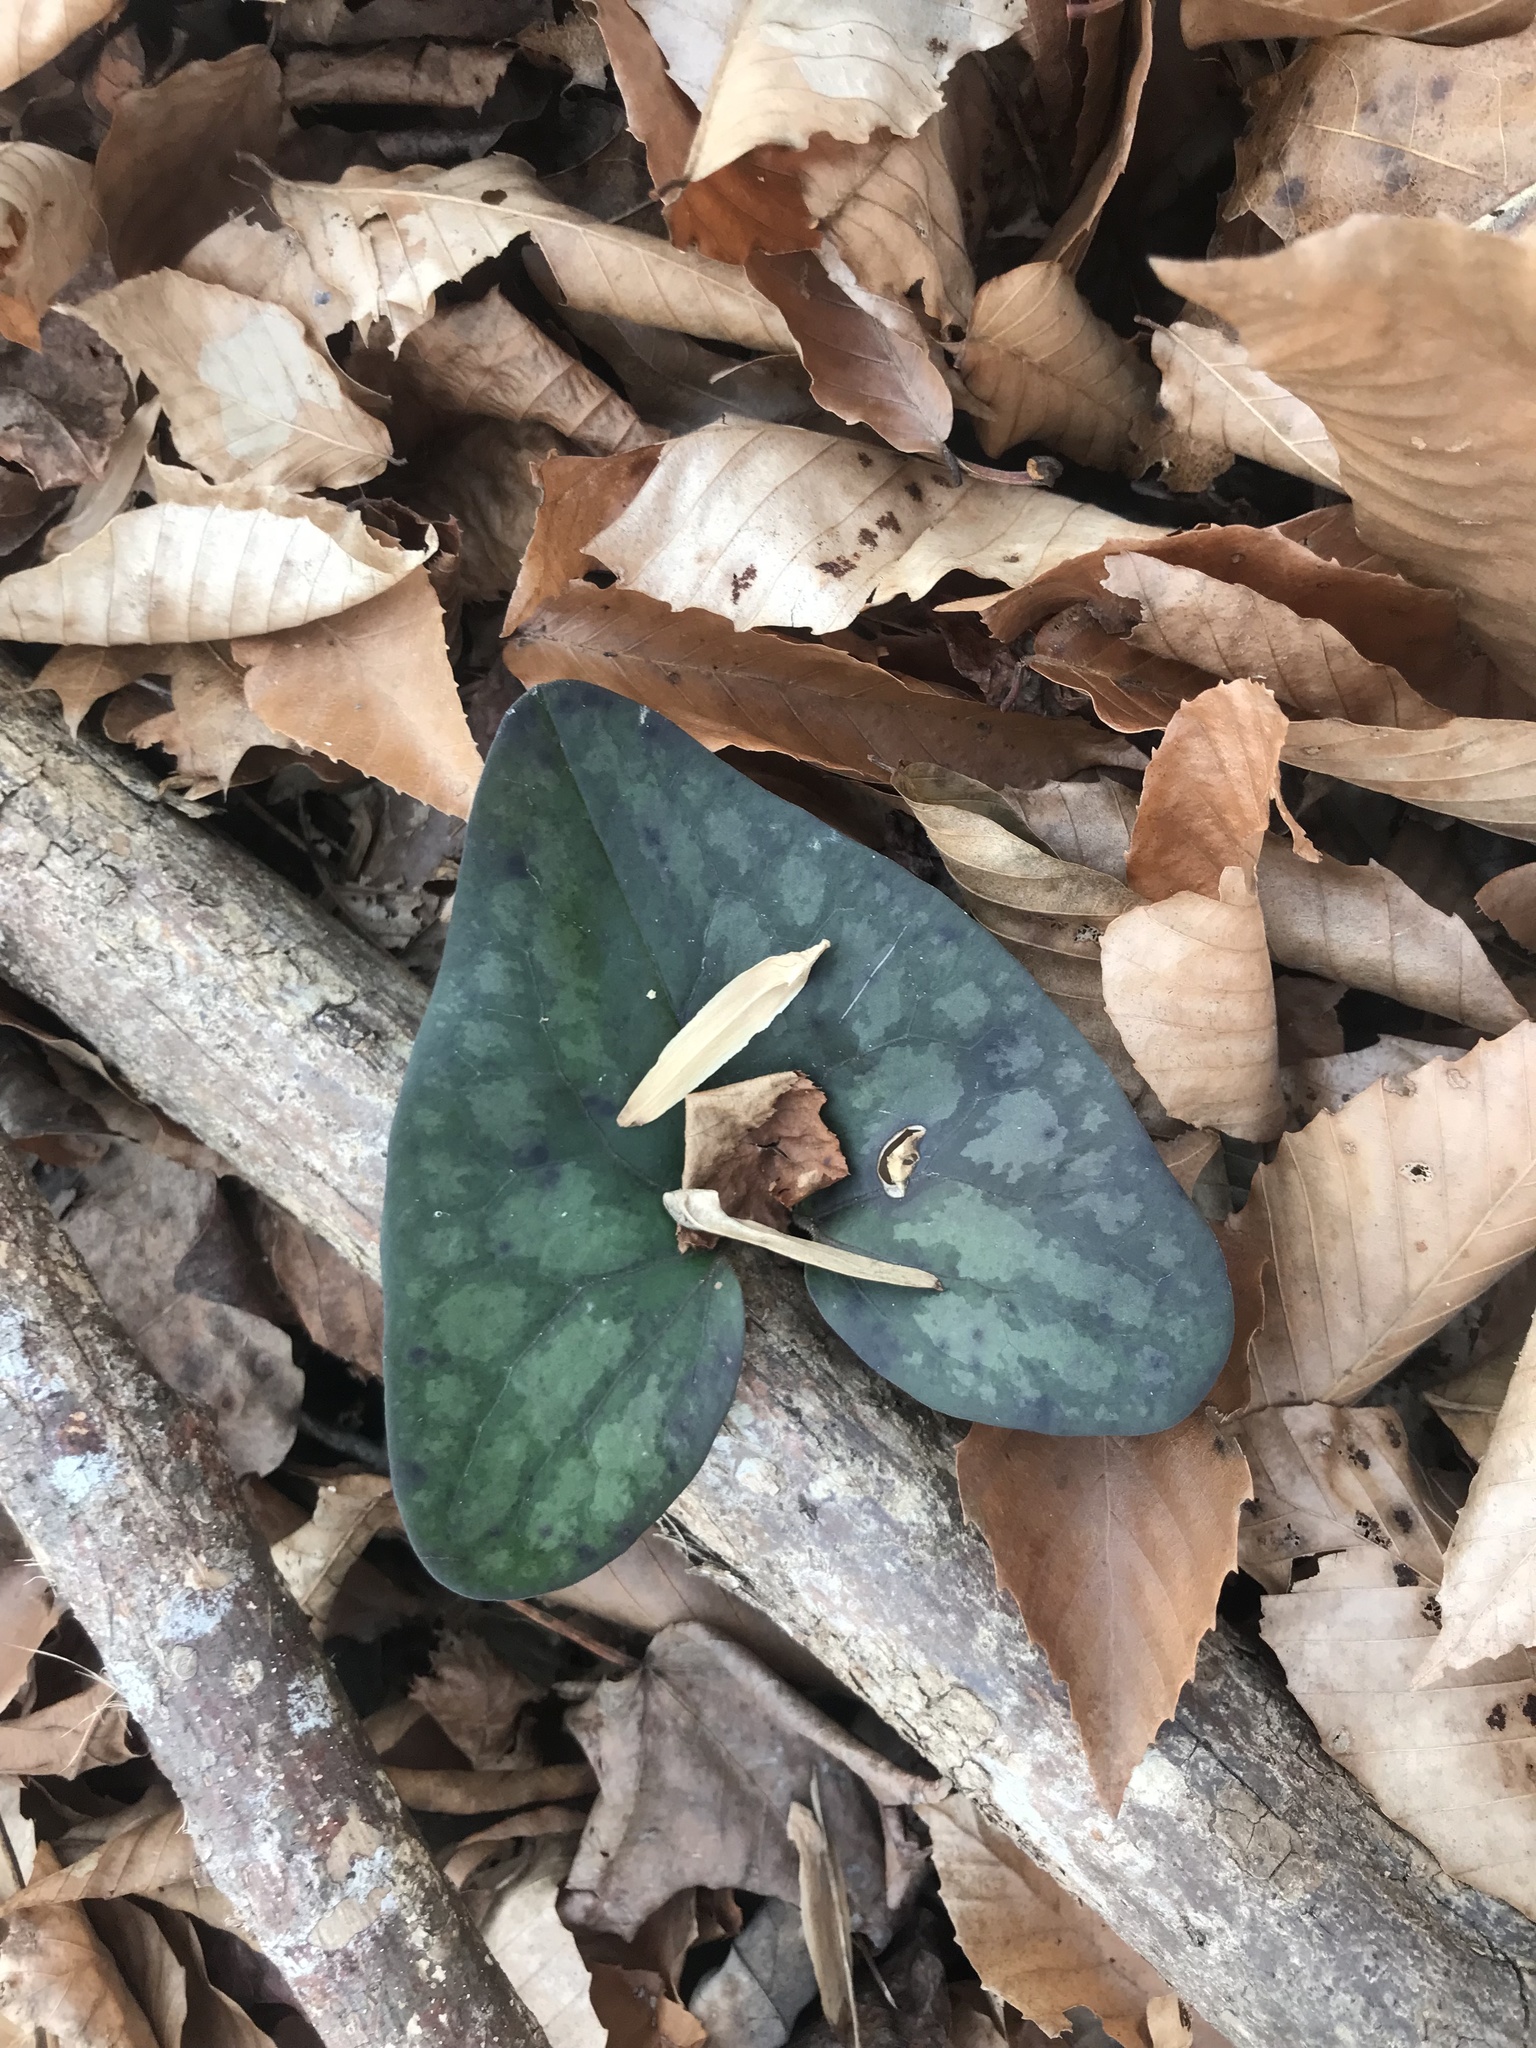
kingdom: Plantae
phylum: Tracheophyta
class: Magnoliopsida
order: Piperales
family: Aristolochiaceae
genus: Hexastylis
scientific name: Hexastylis arifolia
